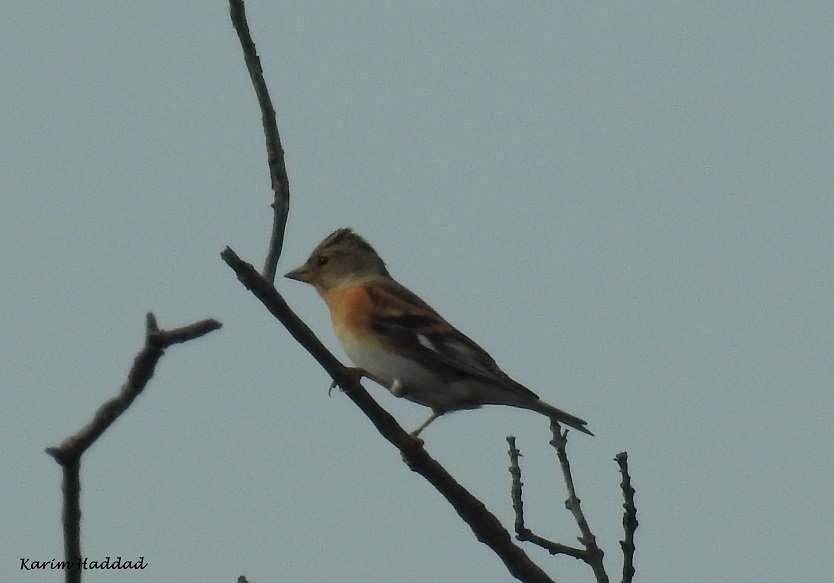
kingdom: Animalia
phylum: Chordata
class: Aves
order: Passeriformes
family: Fringillidae
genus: Fringilla
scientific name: Fringilla montifringilla
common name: Brambling
